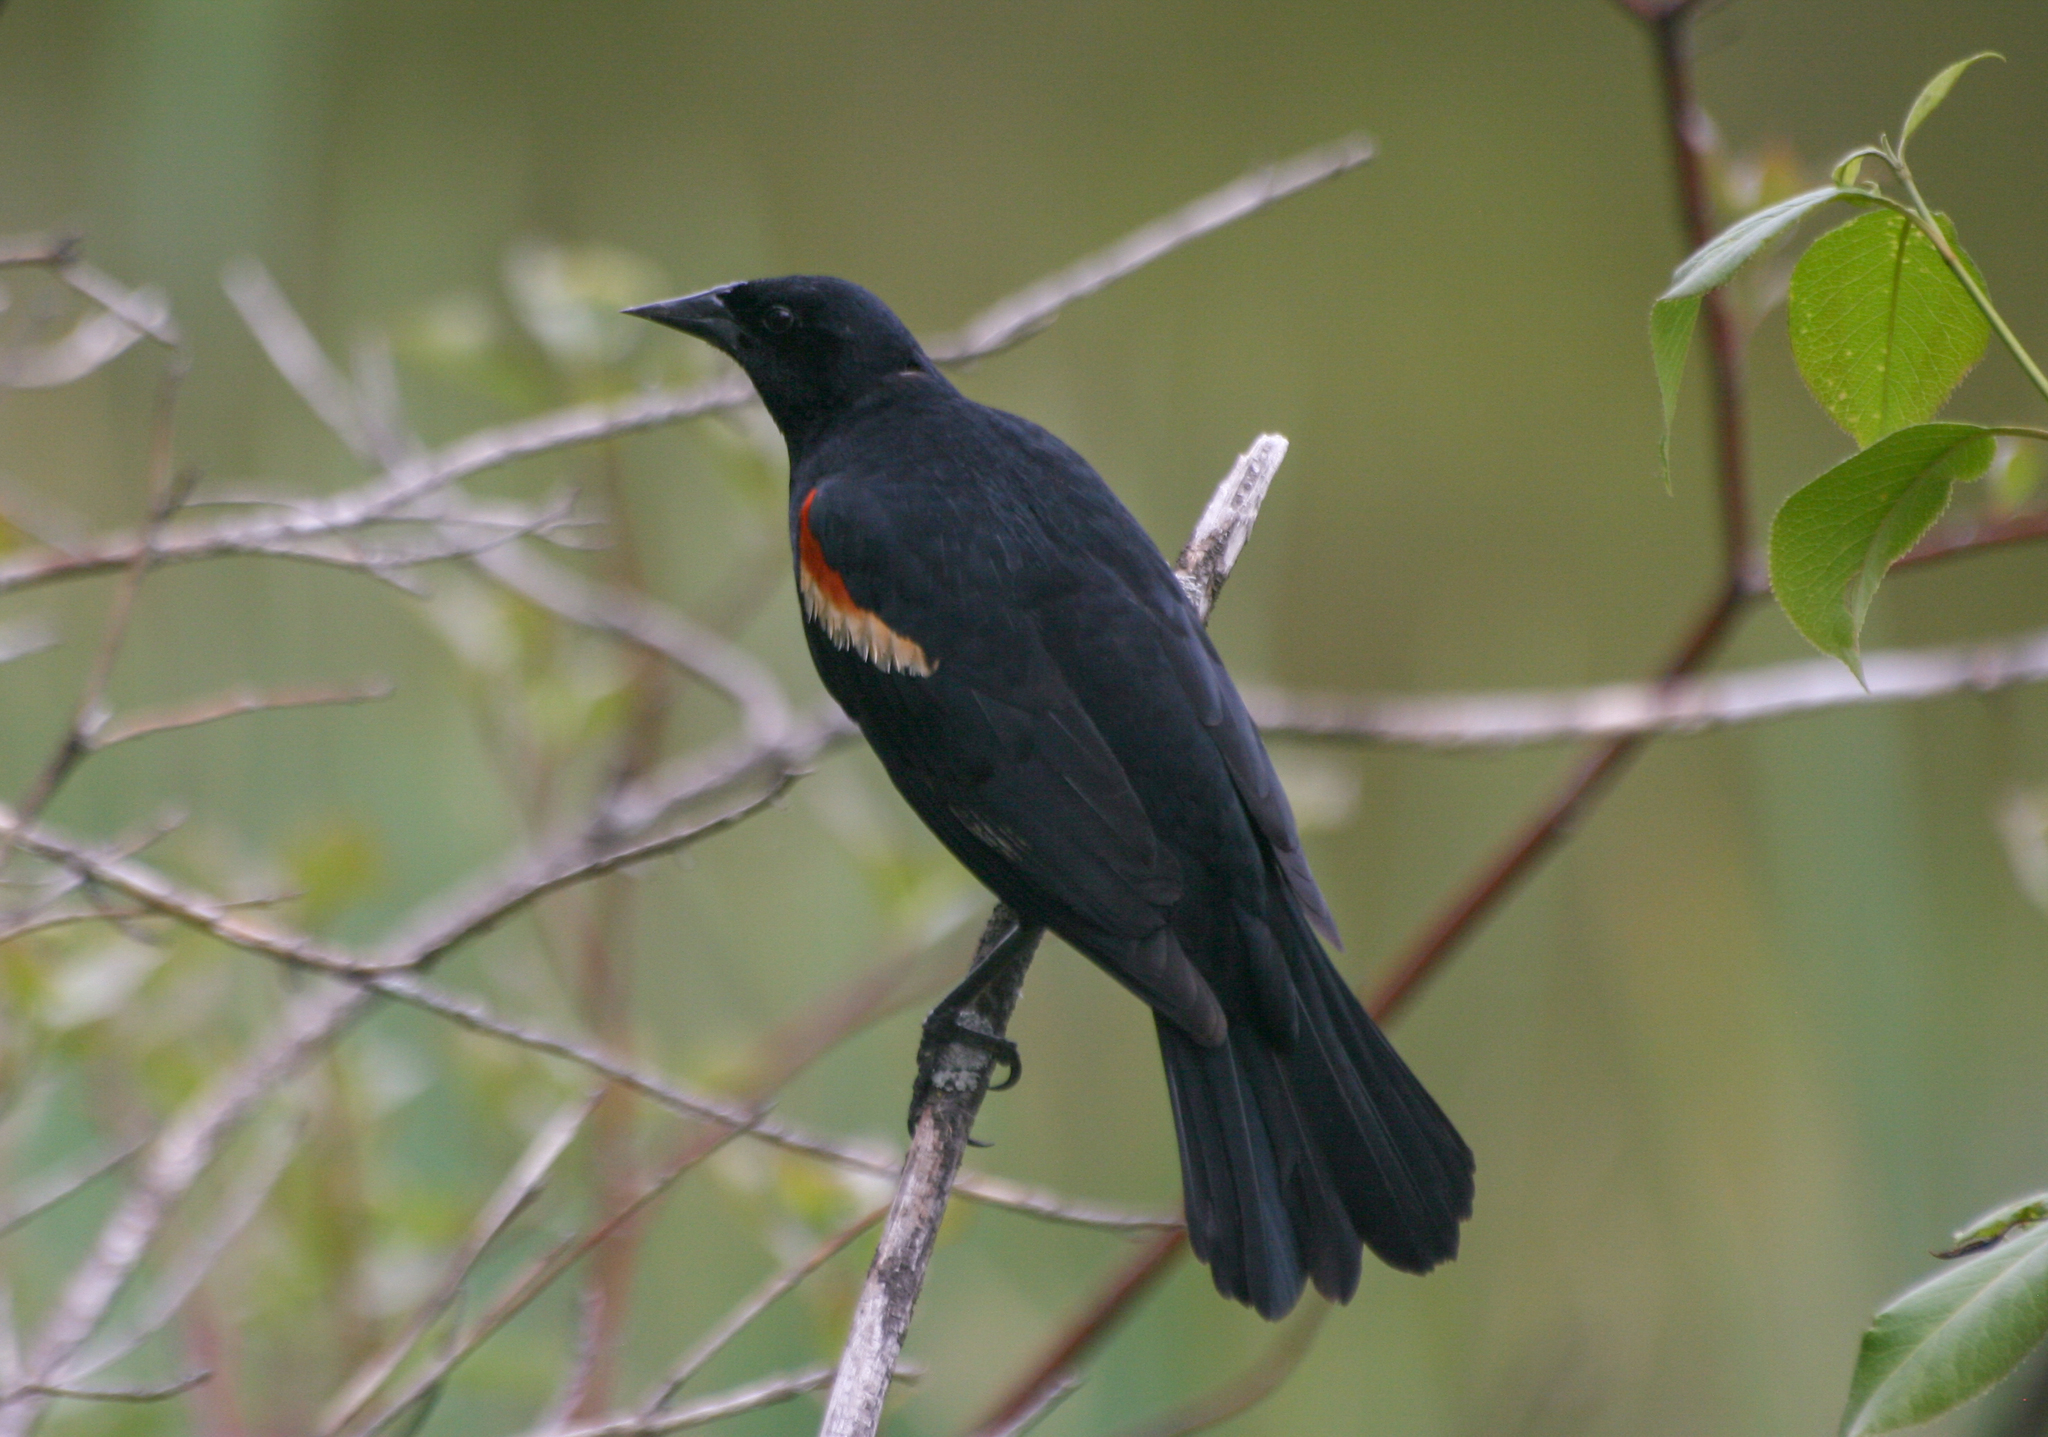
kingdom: Animalia
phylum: Chordata
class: Aves
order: Passeriformes
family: Icteridae
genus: Agelaius
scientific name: Agelaius phoeniceus
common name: Red-winged blackbird
